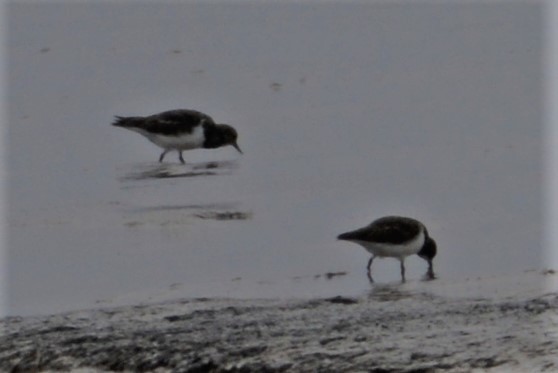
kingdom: Animalia
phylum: Chordata
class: Aves
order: Charadriiformes
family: Haematopodidae
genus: Haematopus
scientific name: Haematopus ostralegus
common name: Eurasian oystercatcher
